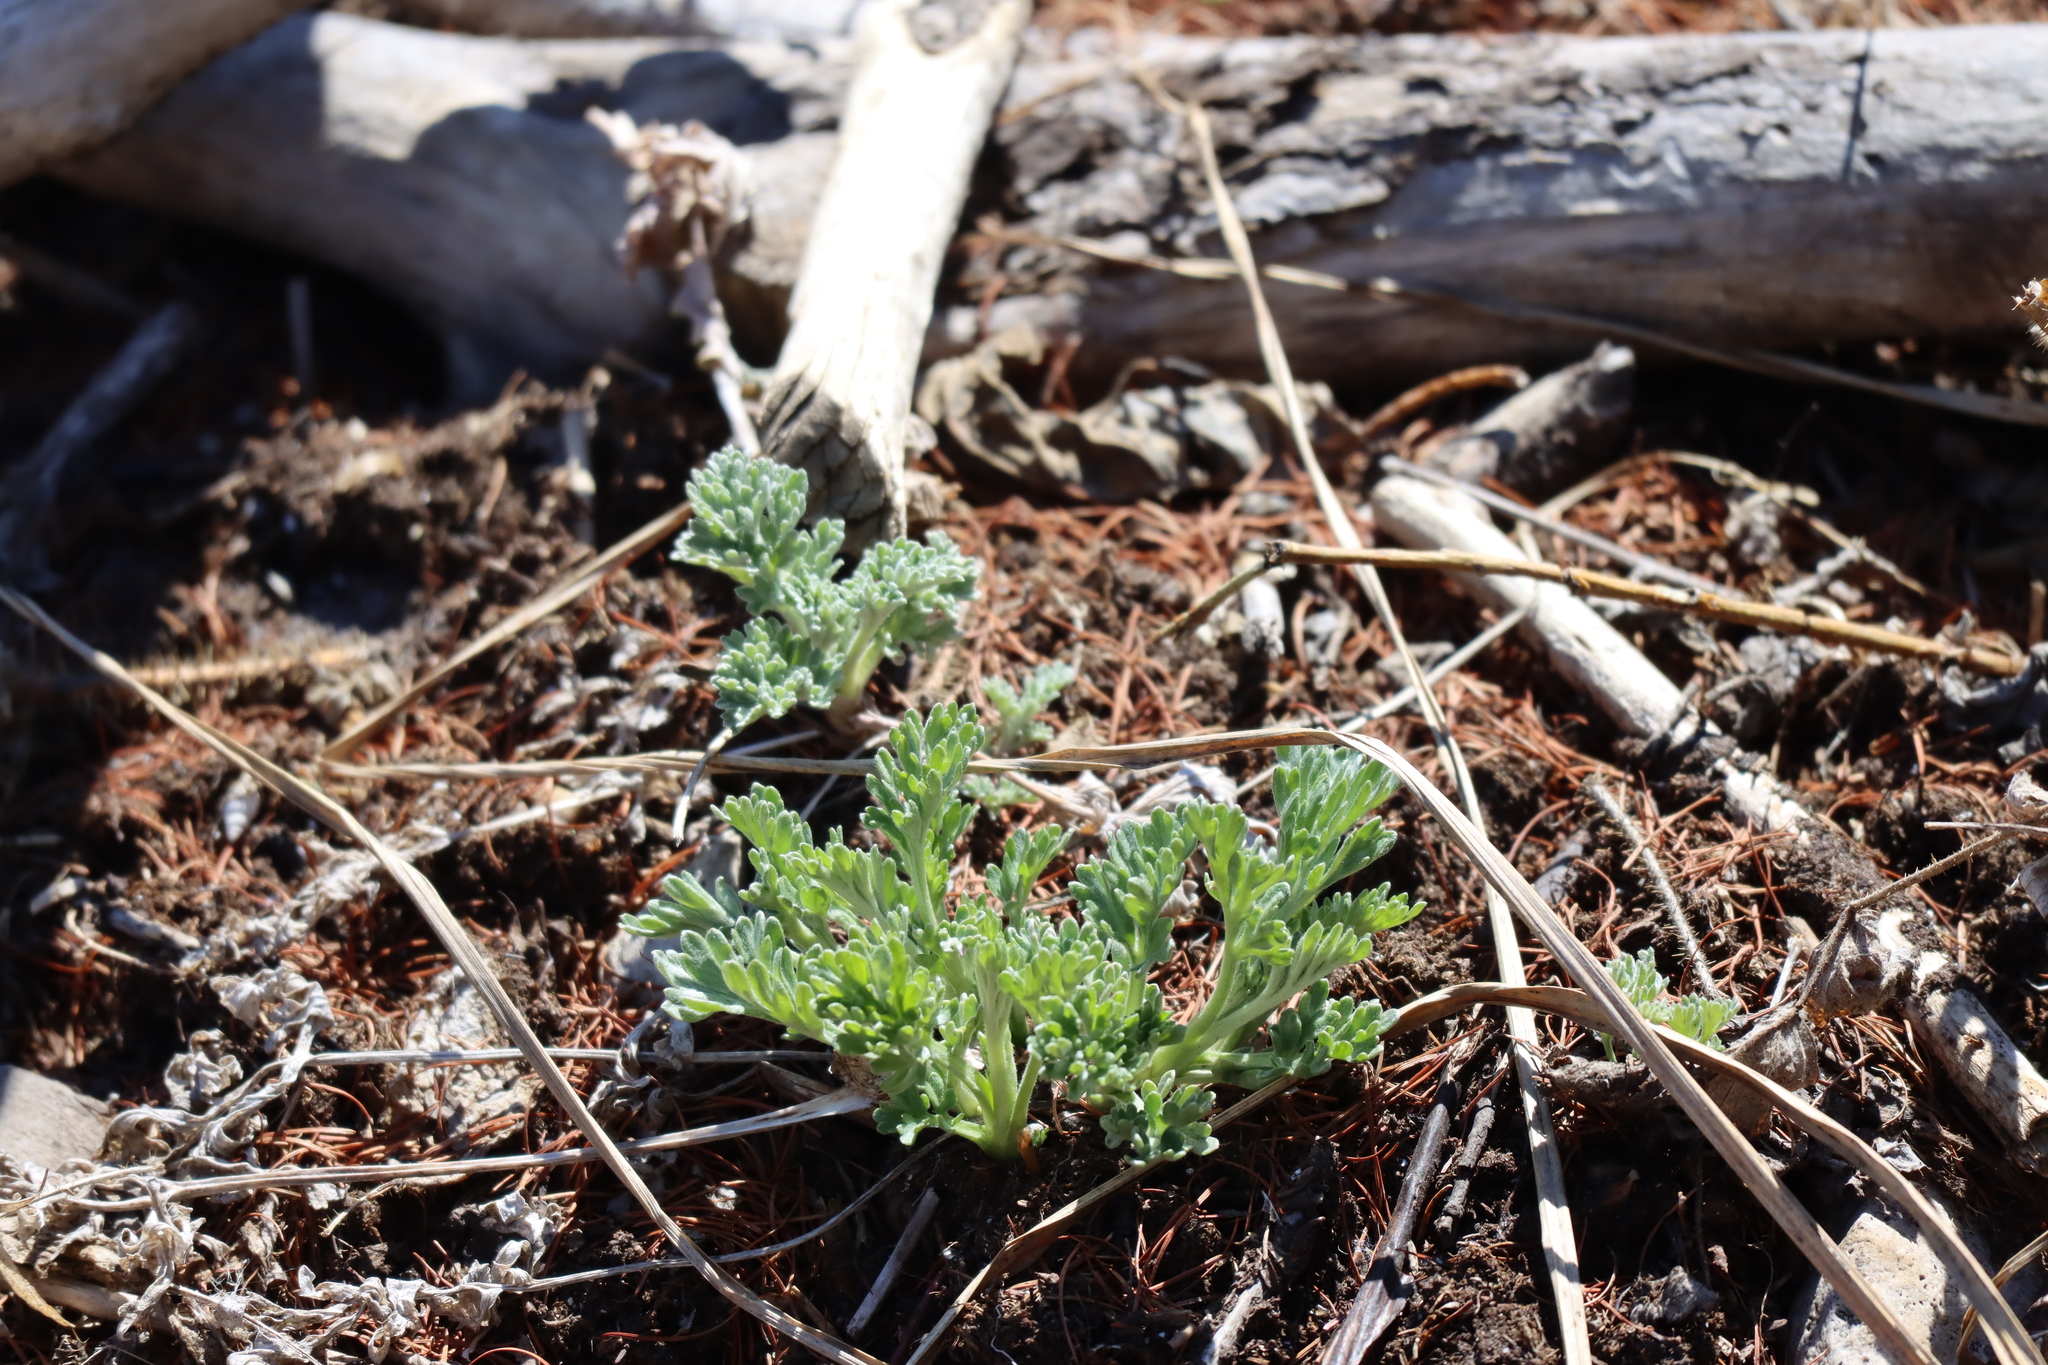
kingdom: Plantae
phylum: Tracheophyta
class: Magnoliopsida
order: Asterales
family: Asteraceae
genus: Artemisia
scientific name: Artemisia absinthium
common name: Wormwood
